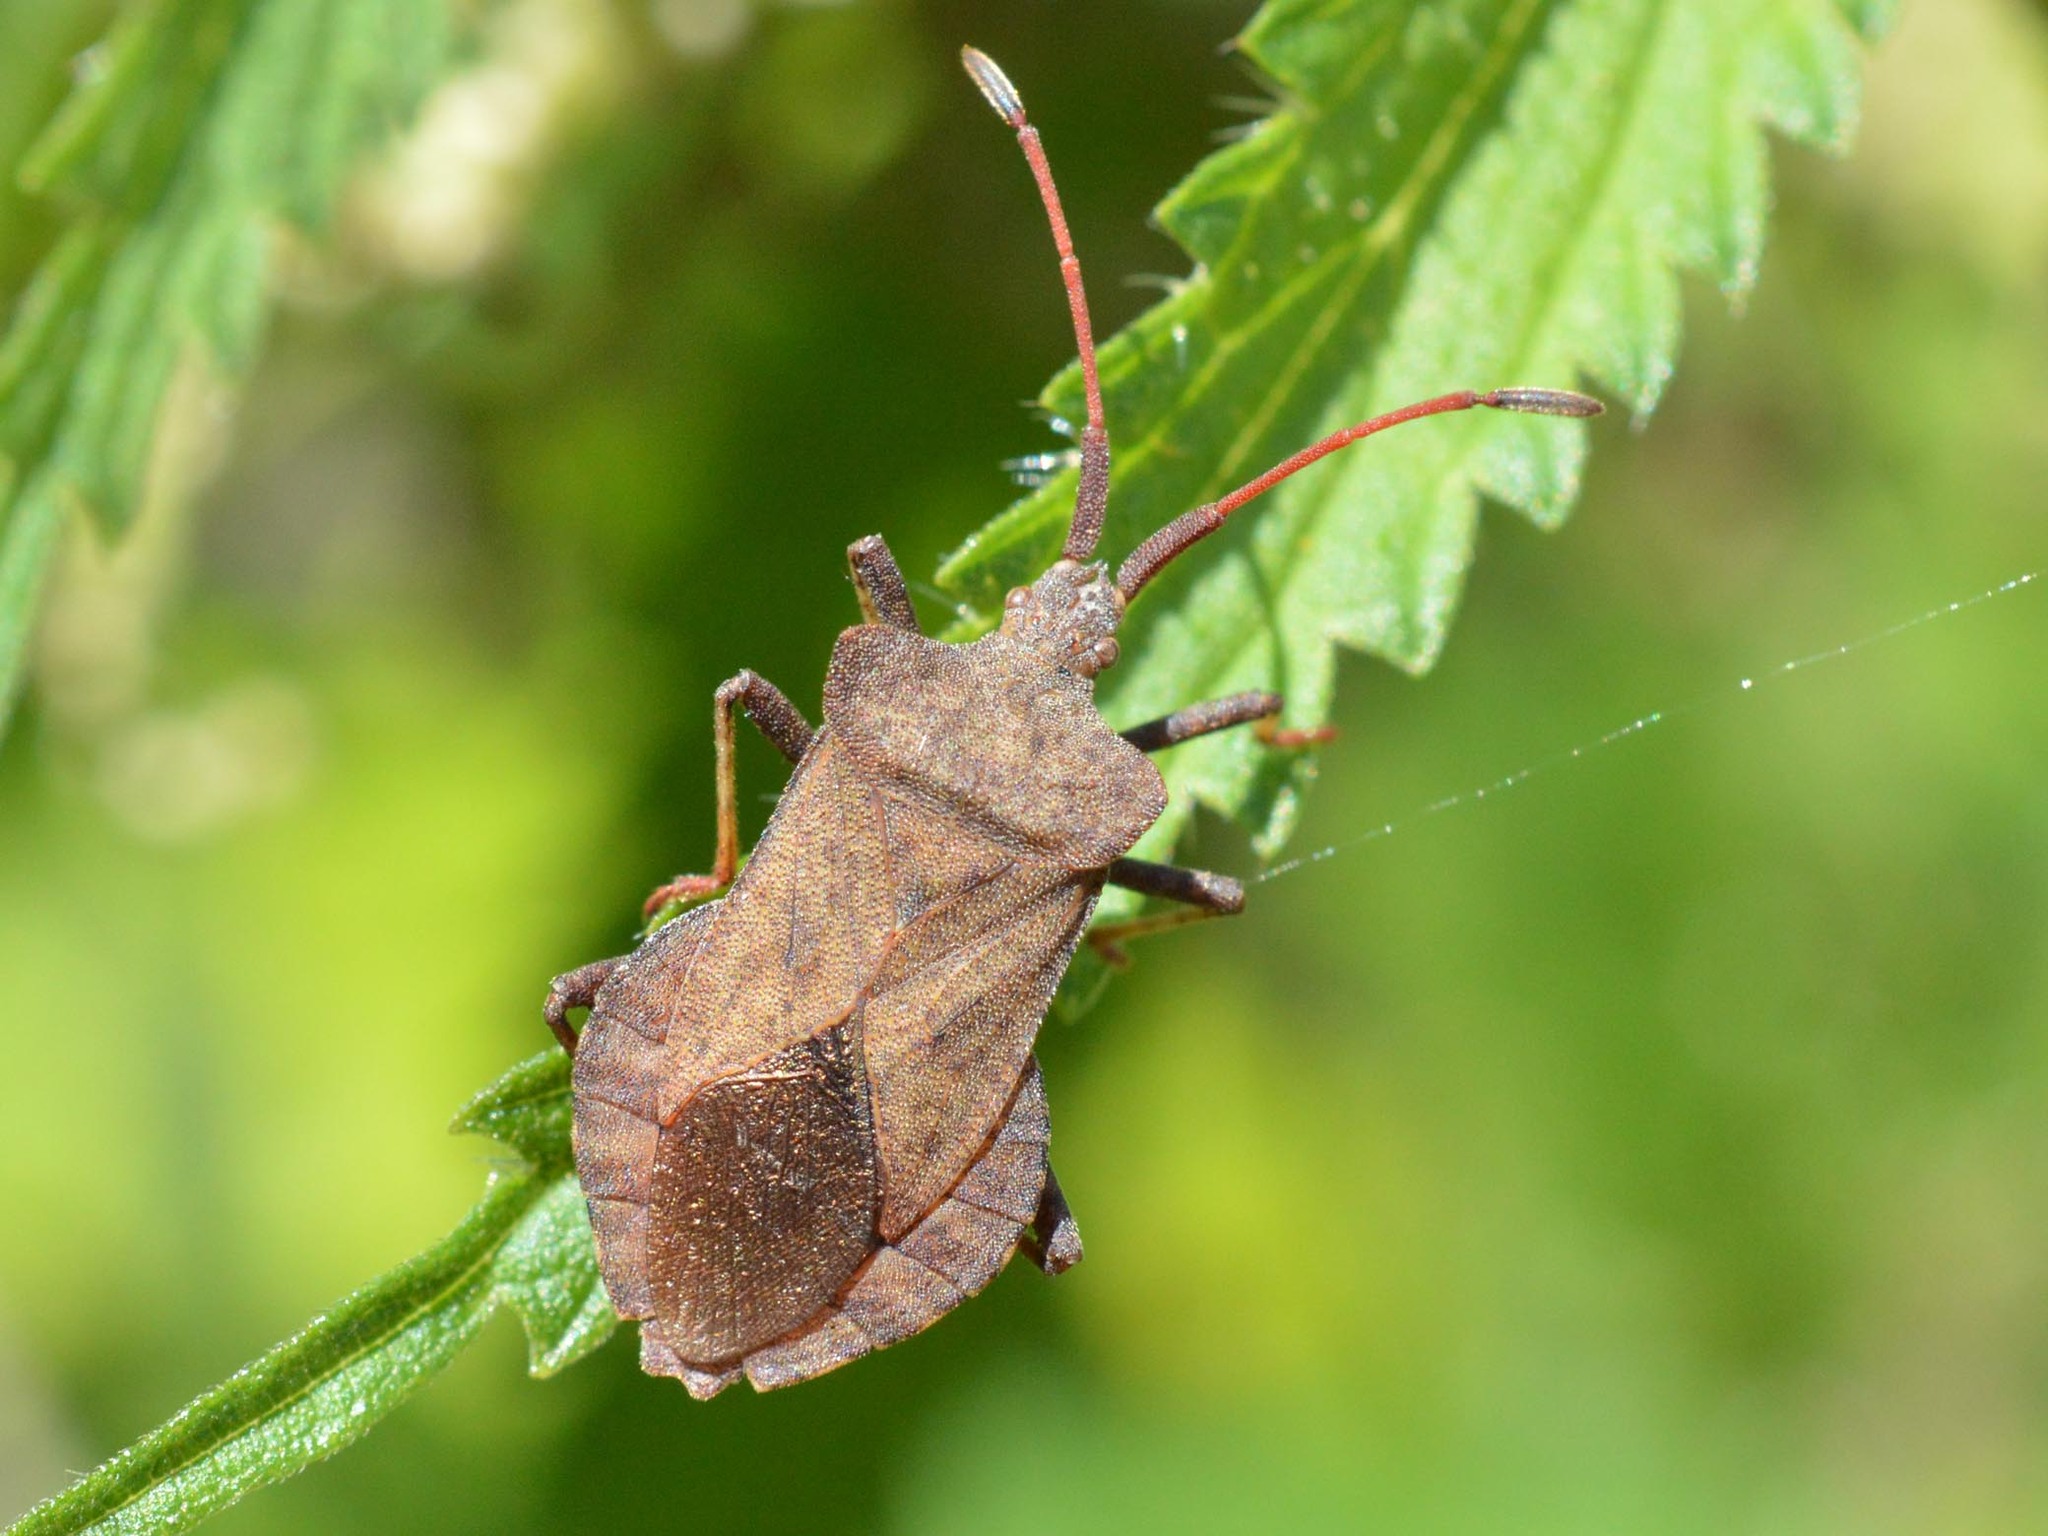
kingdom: Animalia
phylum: Arthropoda
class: Insecta
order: Hemiptera
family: Coreidae
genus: Coreus
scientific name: Coreus marginatus
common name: Dock bug
